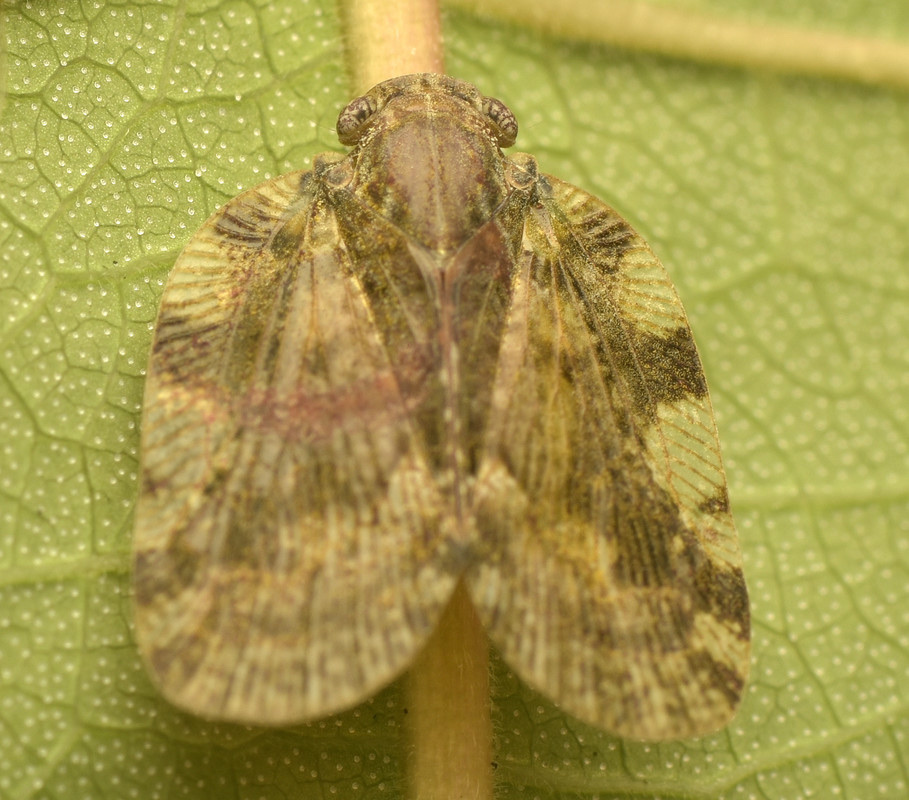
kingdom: Animalia
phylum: Arthropoda
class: Insecta
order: Hemiptera
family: Ricaniidae
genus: Aprivesa
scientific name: Aprivesa exuta
